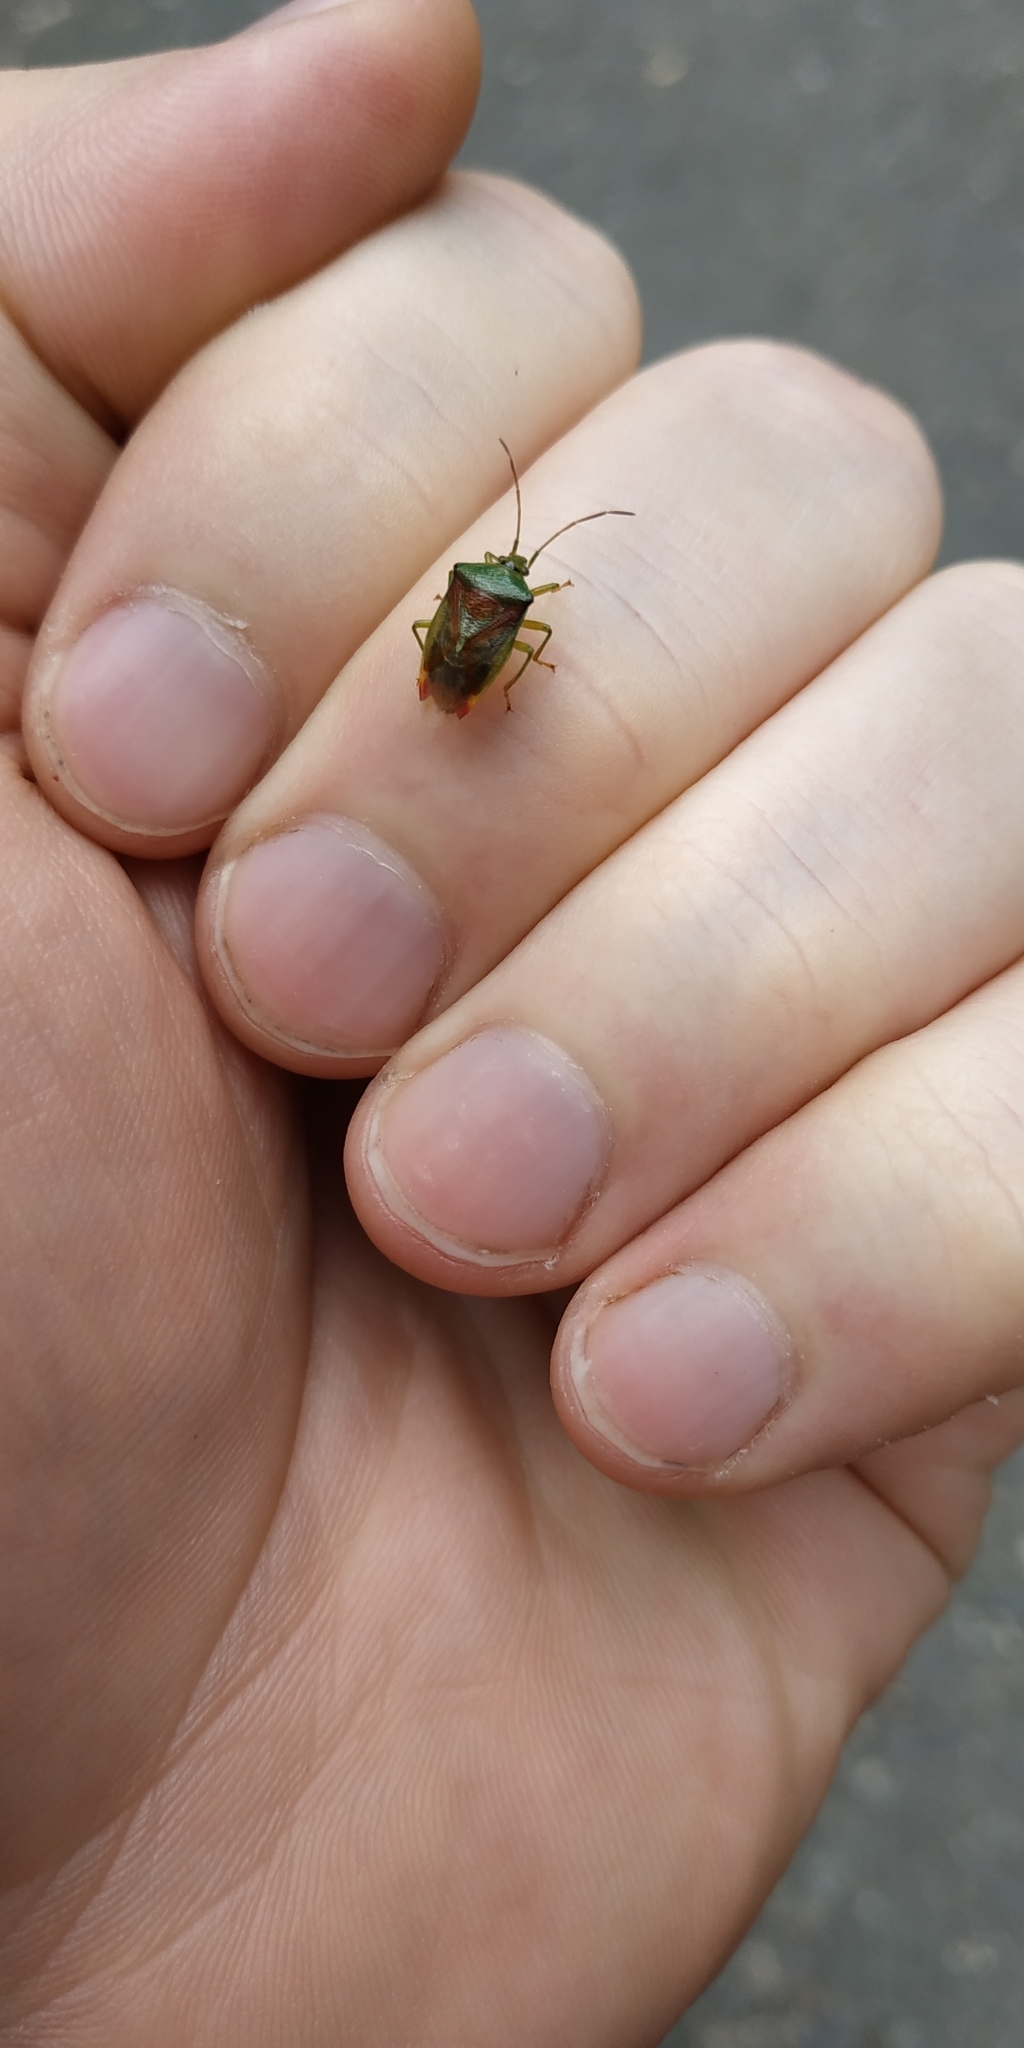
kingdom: Animalia
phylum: Arthropoda
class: Insecta
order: Hemiptera
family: Acanthosomatidae
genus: Elasmostethus
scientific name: Elasmostethus interstinctus
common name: Birch shieldbug
